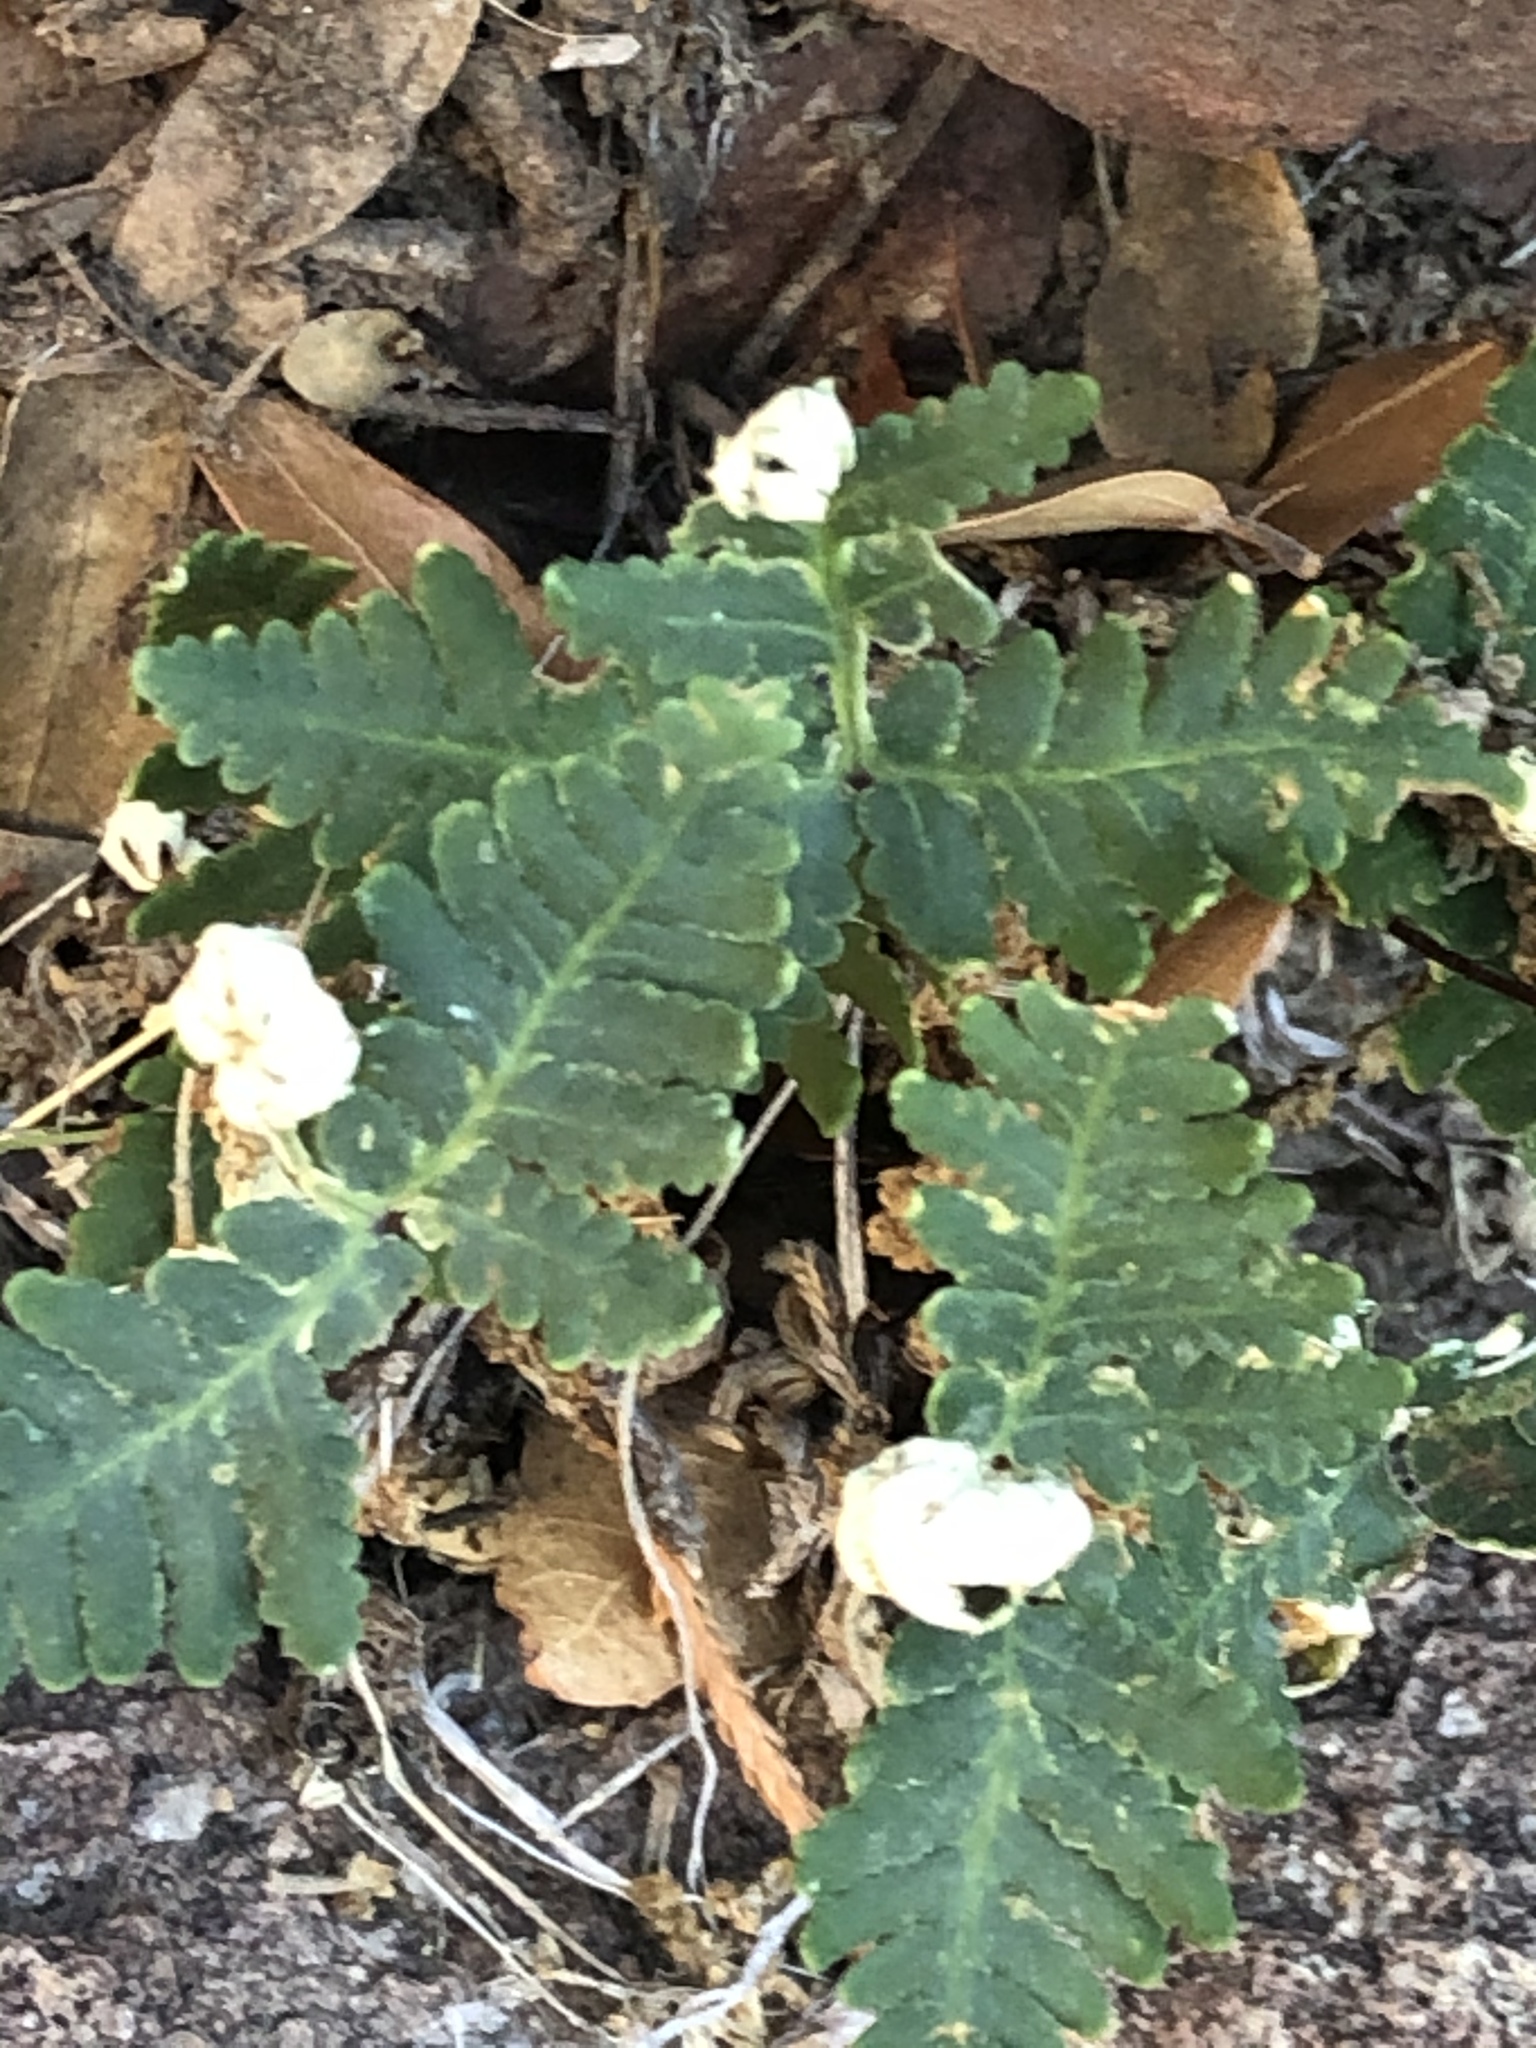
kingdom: Plantae
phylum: Tracheophyta
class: Polypodiopsida
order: Polypodiales
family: Pteridaceae
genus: Notholaena
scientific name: Notholaena standleyi
